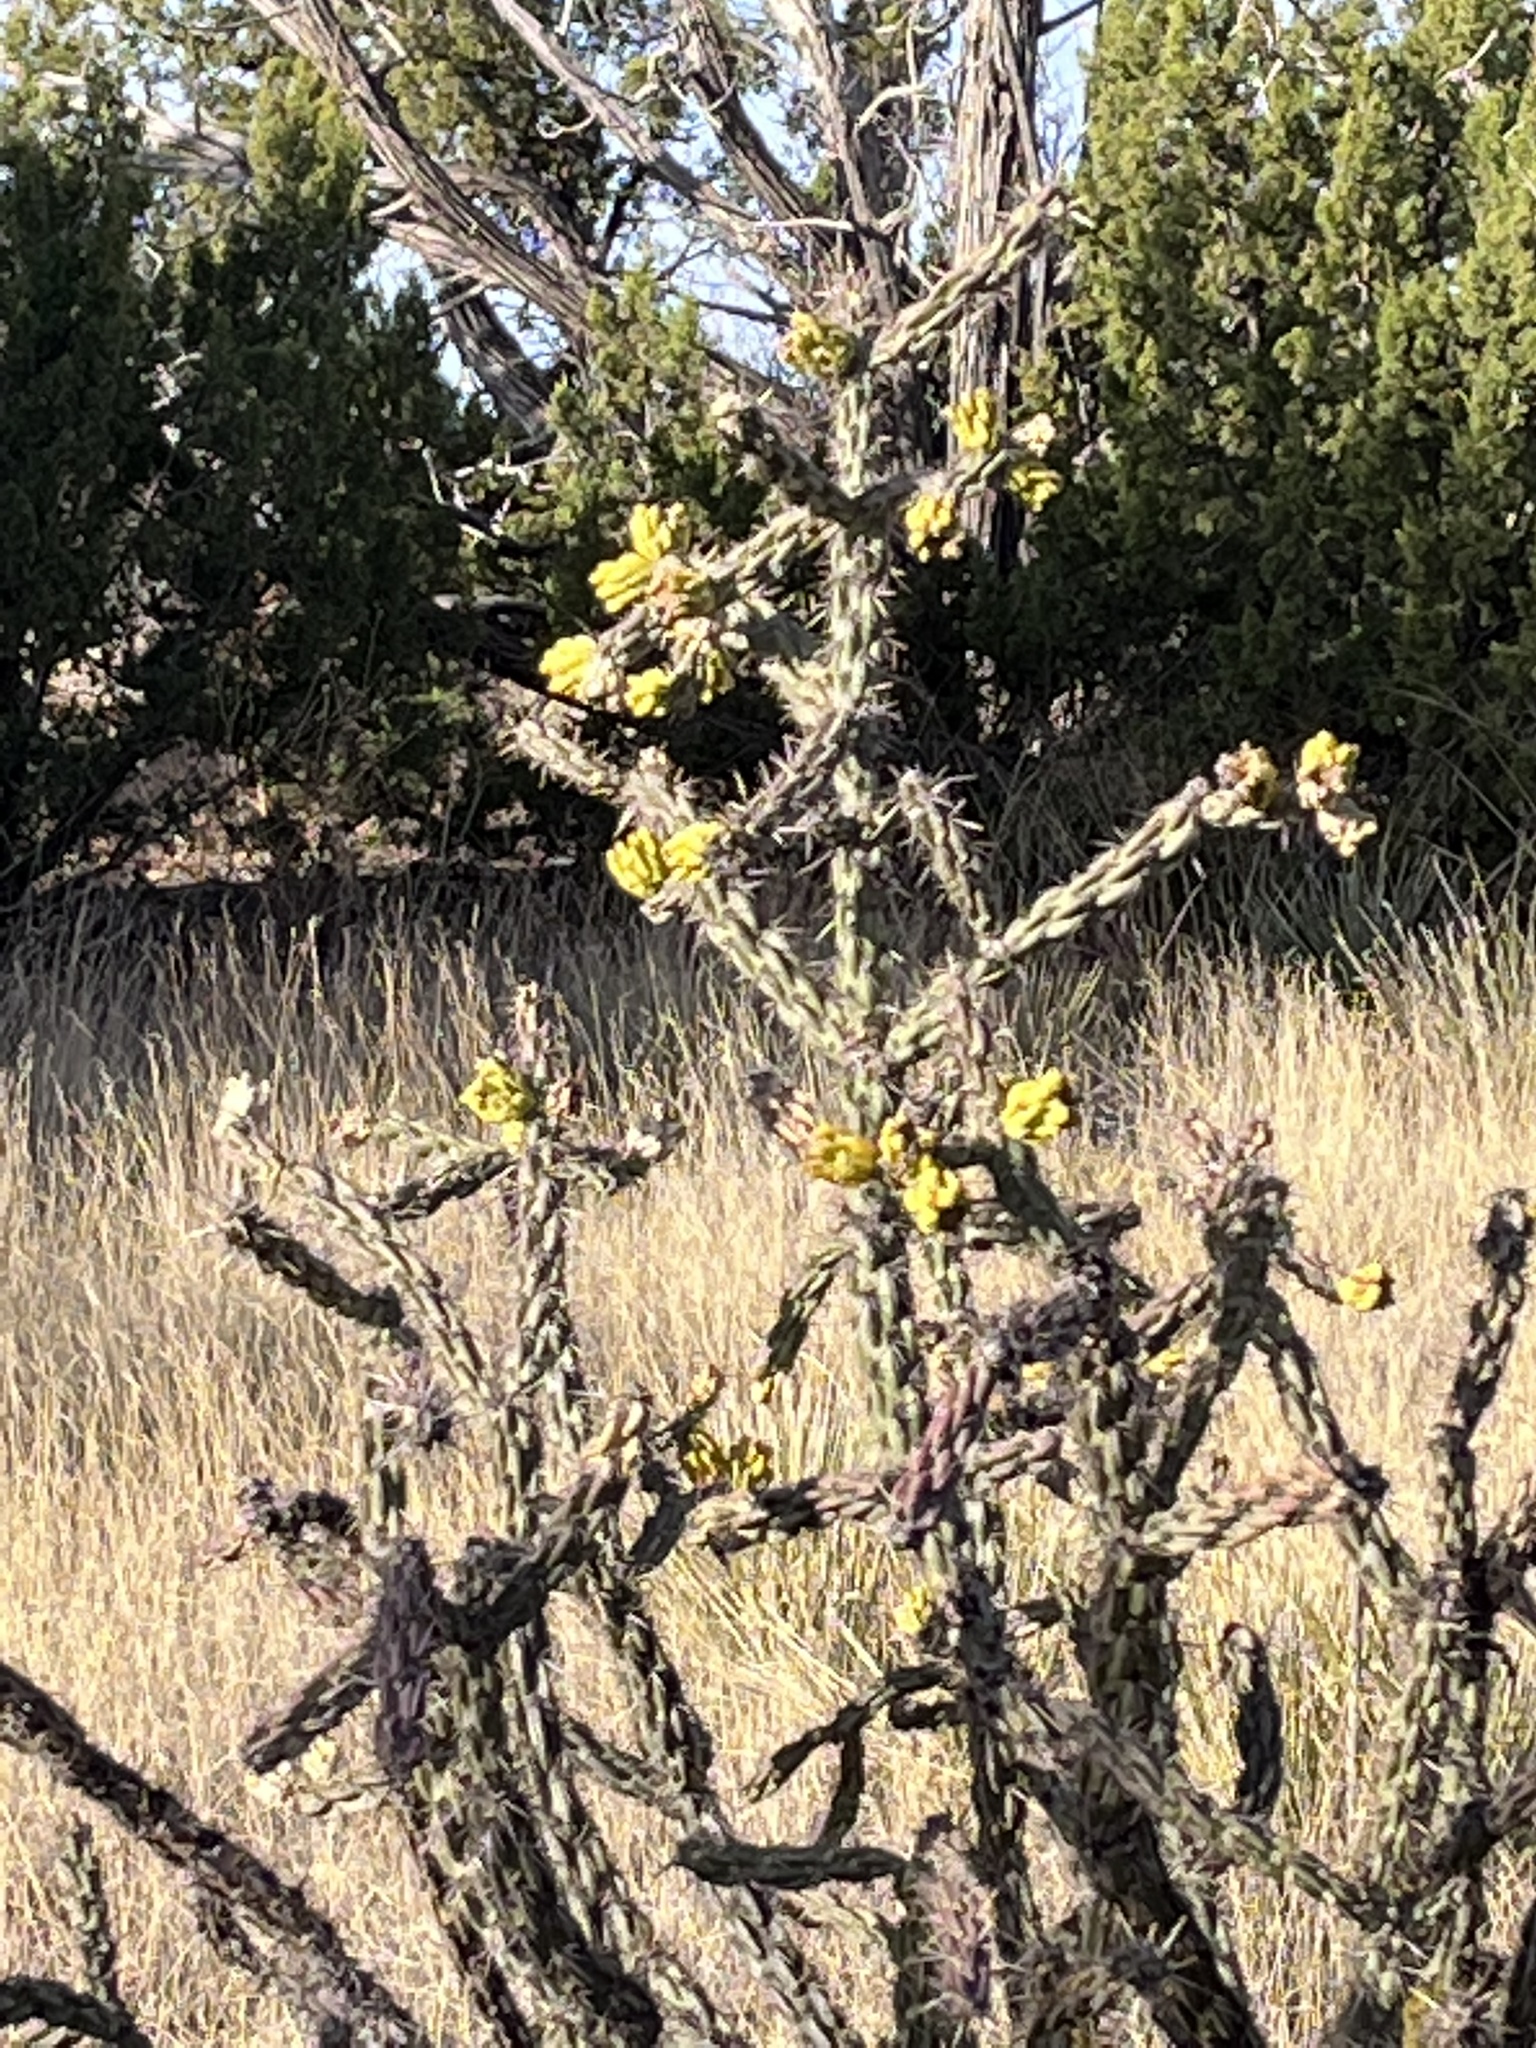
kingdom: Plantae
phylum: Tracheophyta
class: Magnoliopsida
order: Caryophyllales
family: Cactaceae
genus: Cylindropuntia
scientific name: Cylindropuntia imbricata
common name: Candelabrum cactus
